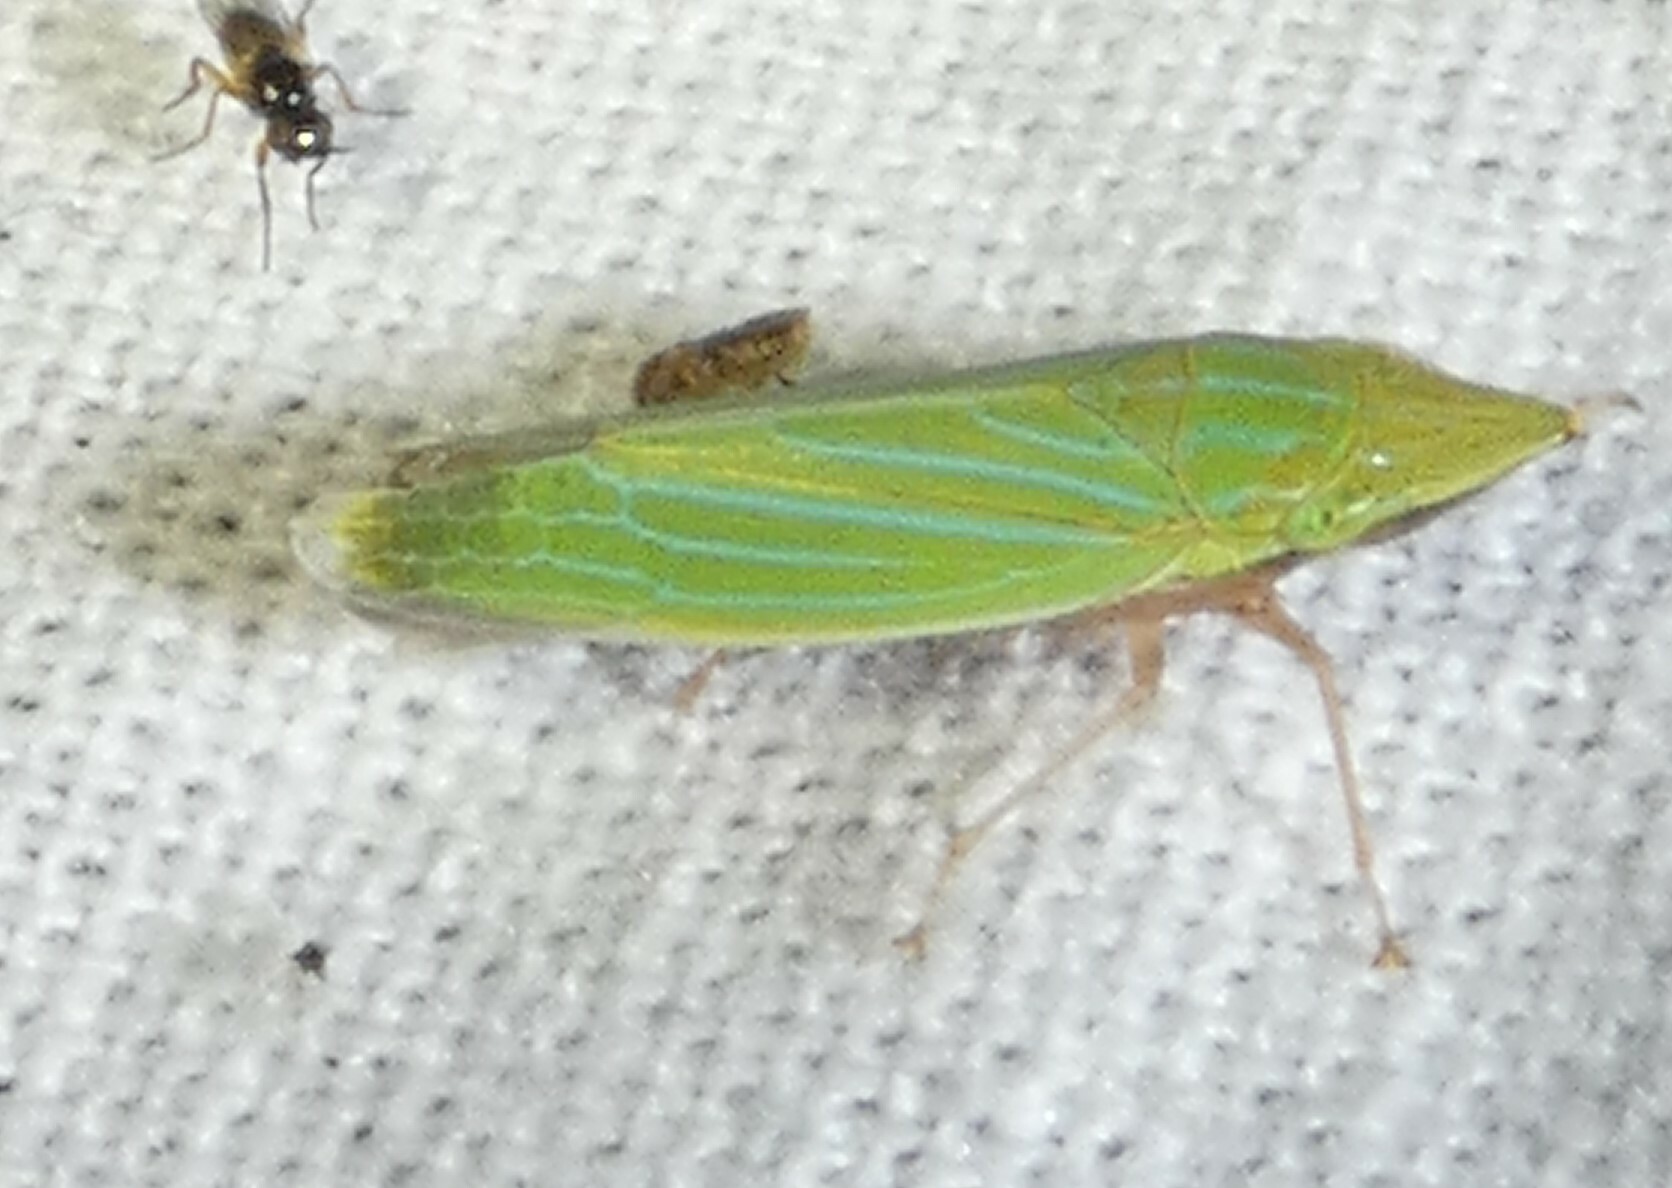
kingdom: Animalia
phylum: Arthropoda
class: Insecta
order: Hemiptera
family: Cicadellidae
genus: Draeculacephala
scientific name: Draeculacephala robinsoni
